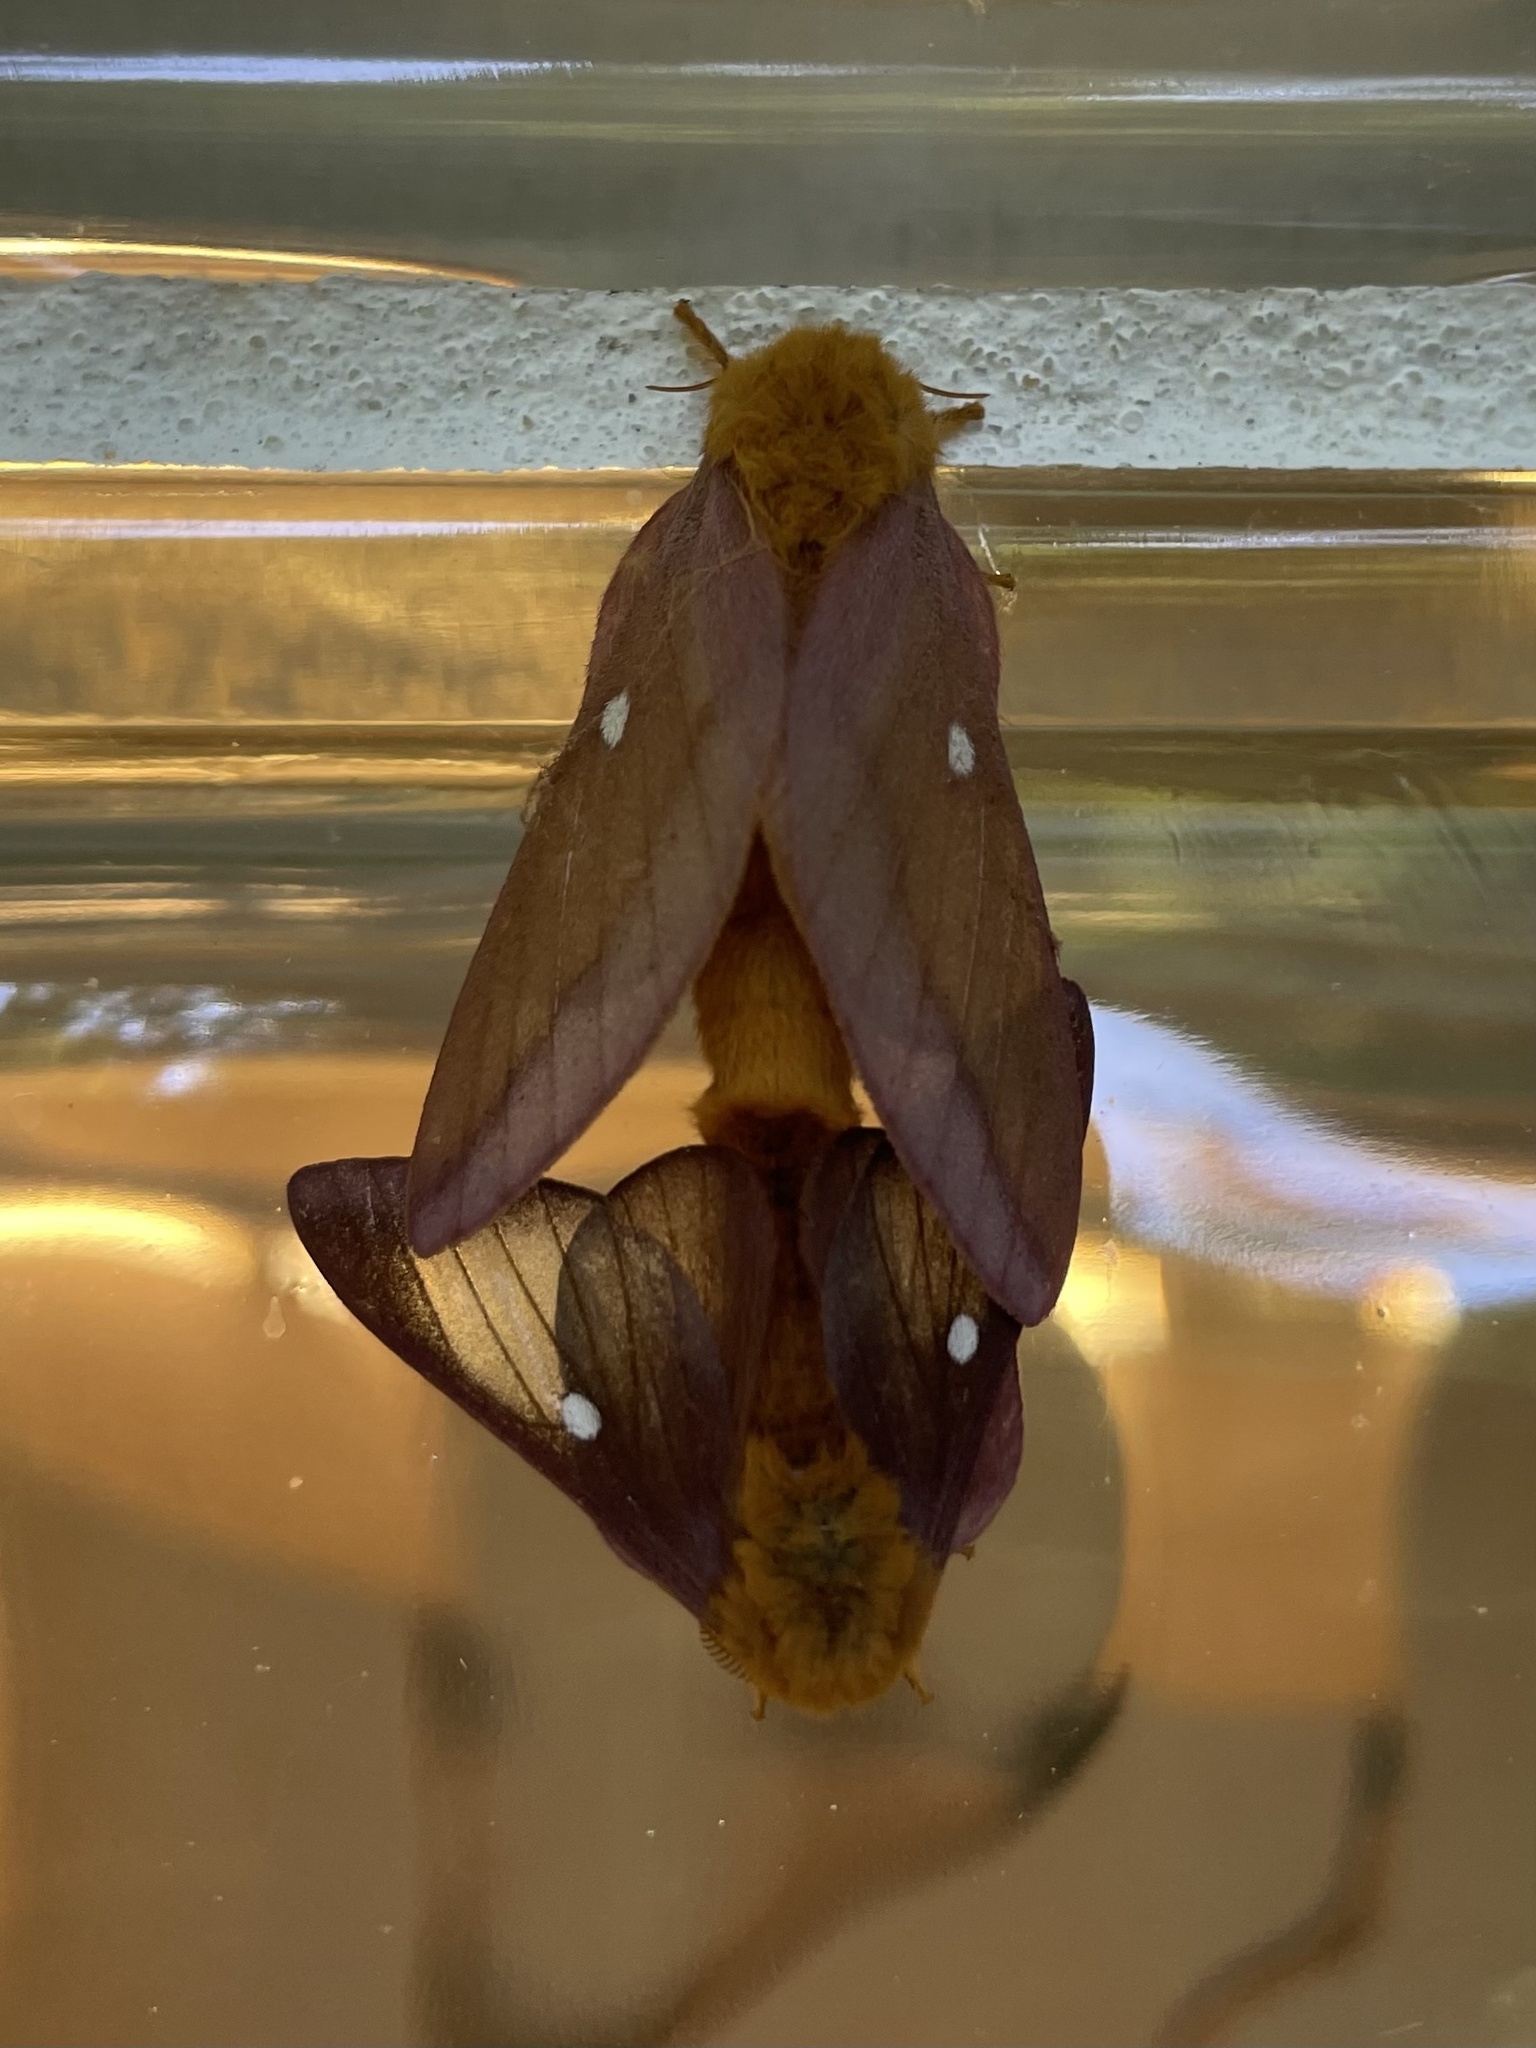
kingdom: Animalia
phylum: Arthropoda
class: Insecta
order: Lepidoptera
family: Saturniidae
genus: Anisota
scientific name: Anisota virginiensis
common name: Pink striped oakworm moth
